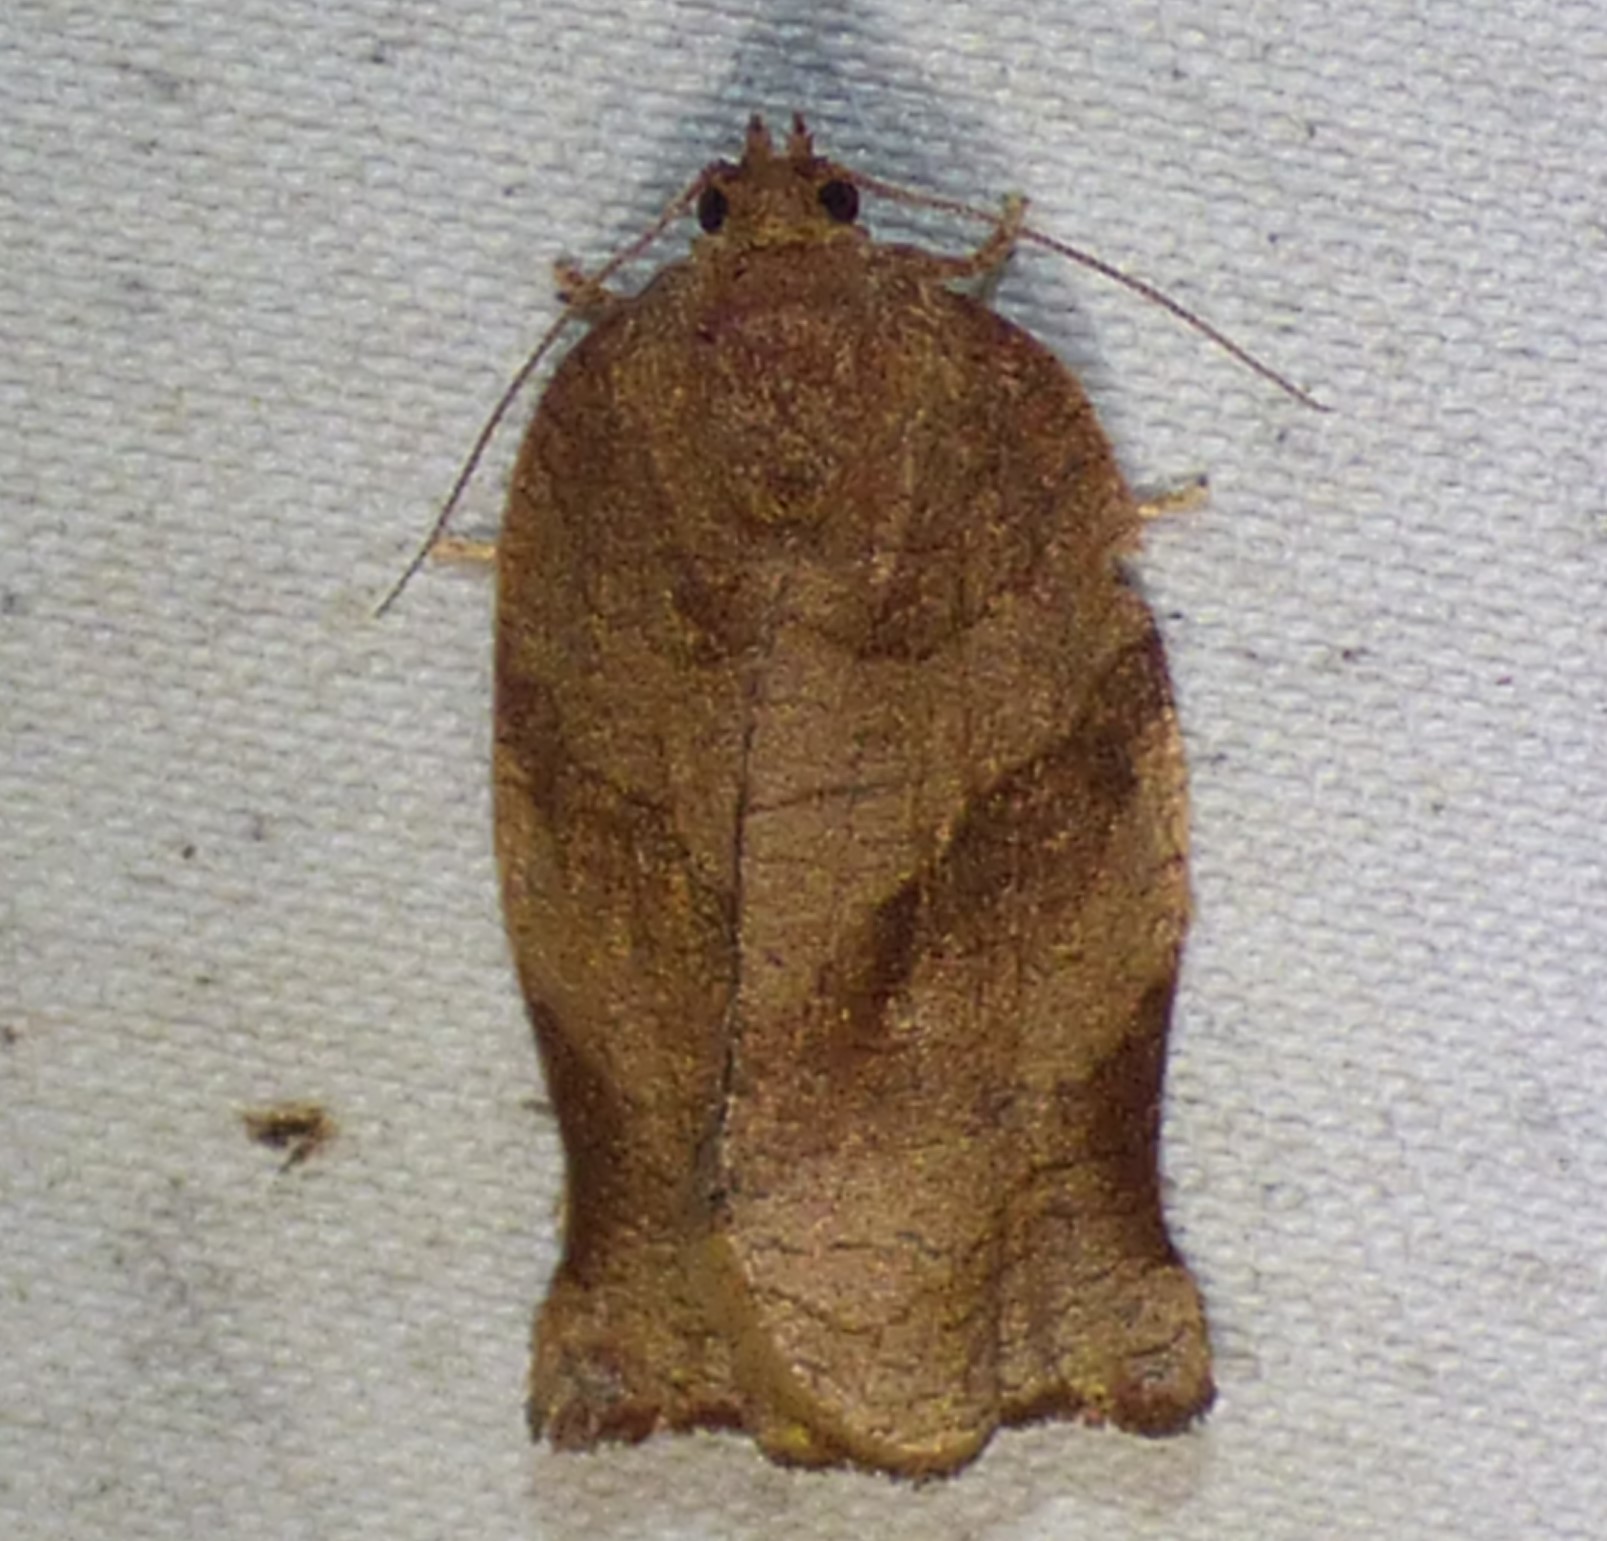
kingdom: Animalia
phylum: Arthropoda
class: Insecta
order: Lepidoptera
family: Tortricidae
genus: Choristoneura
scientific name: Choristoneura rosaceana
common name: Oblique-banded leafroller moth
